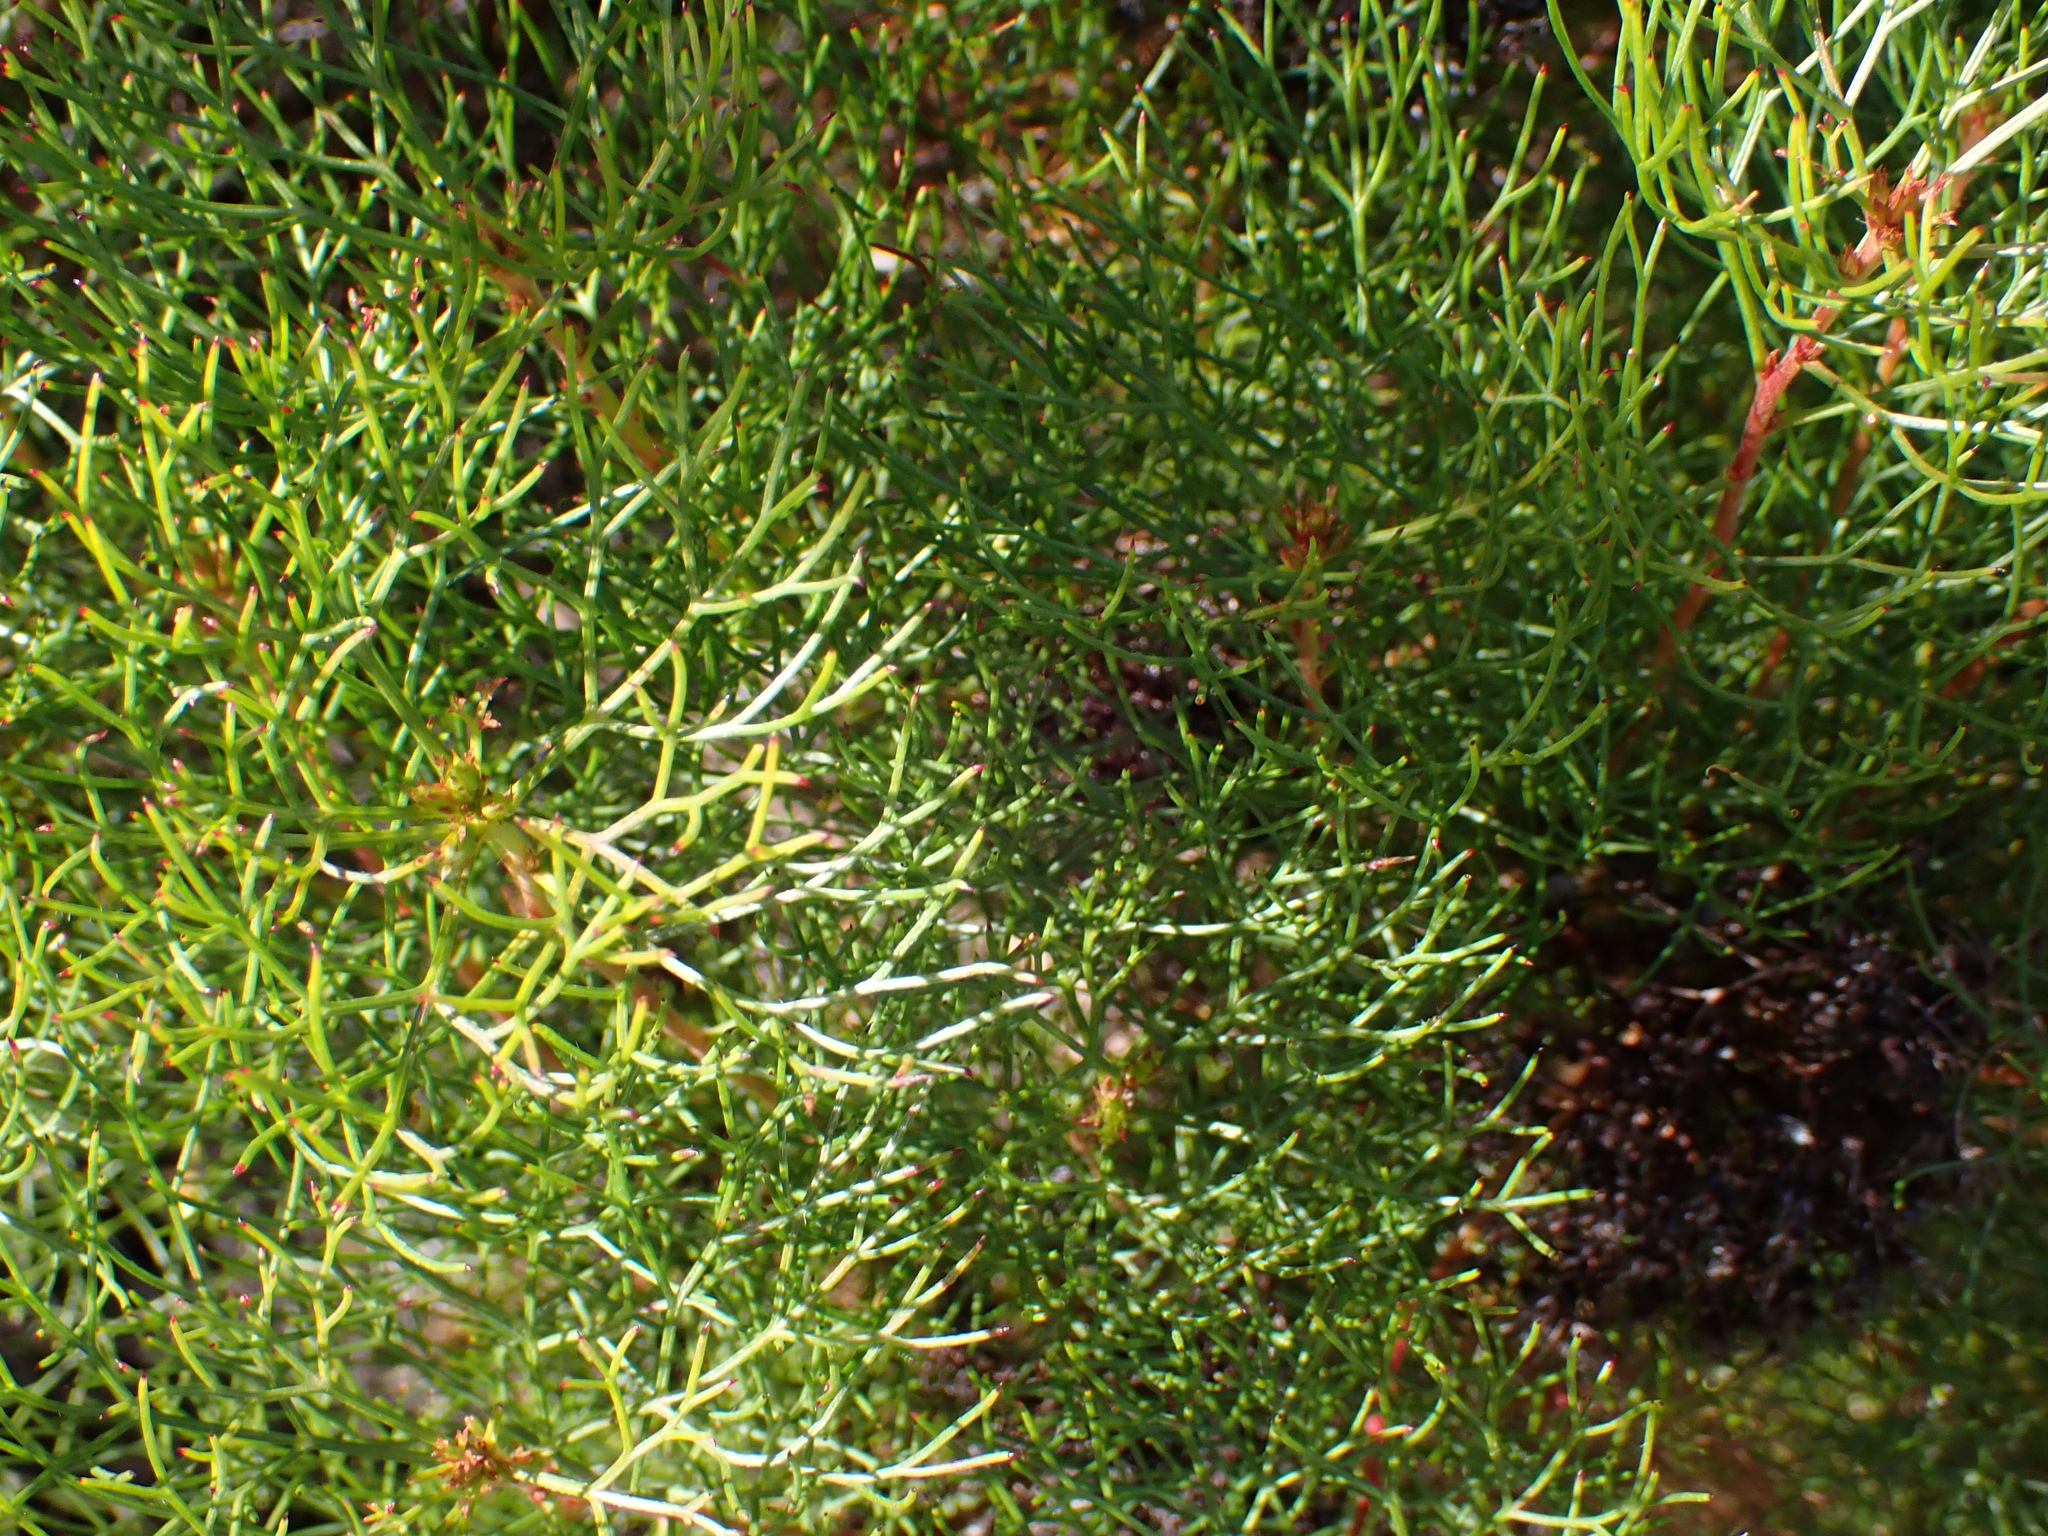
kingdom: Plantae
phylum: Tracheophyta
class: Magnoliopsida
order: Proteales
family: Proteaceae
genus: Serruria
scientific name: Serruria fasciflora
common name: Common pin spiderhead
